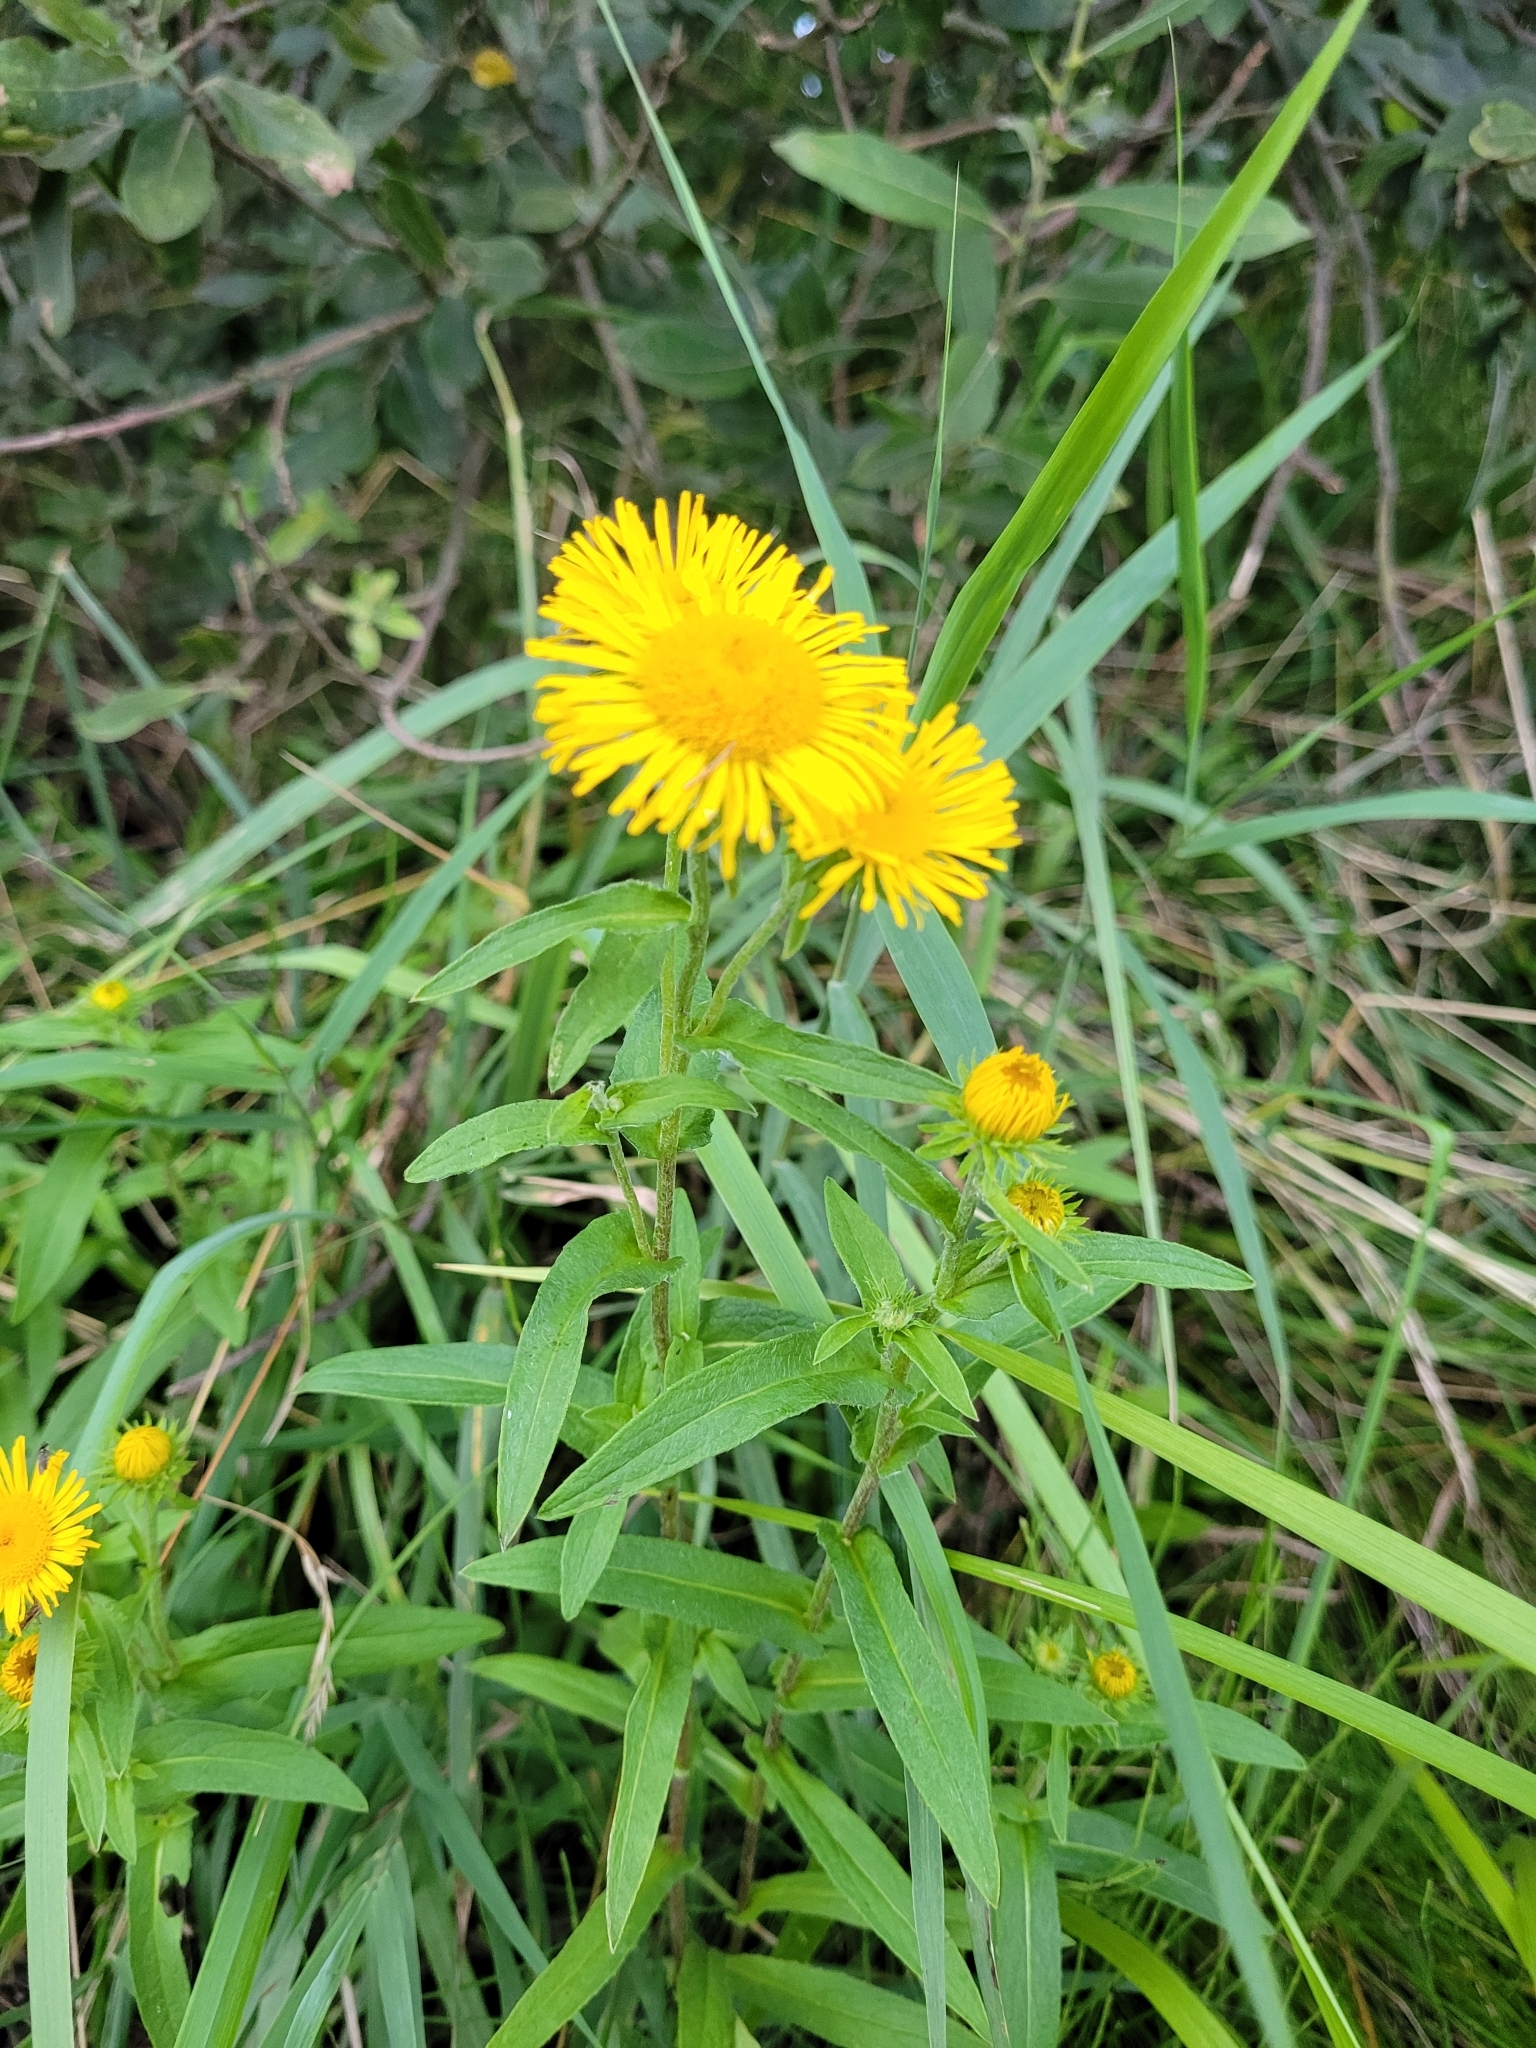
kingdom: Plantae
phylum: Tracheophyta
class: Magnoliopsida
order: Asterales
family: Asteraceae
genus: Pentanema
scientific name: Pentanema britannicum
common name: British elecampane
